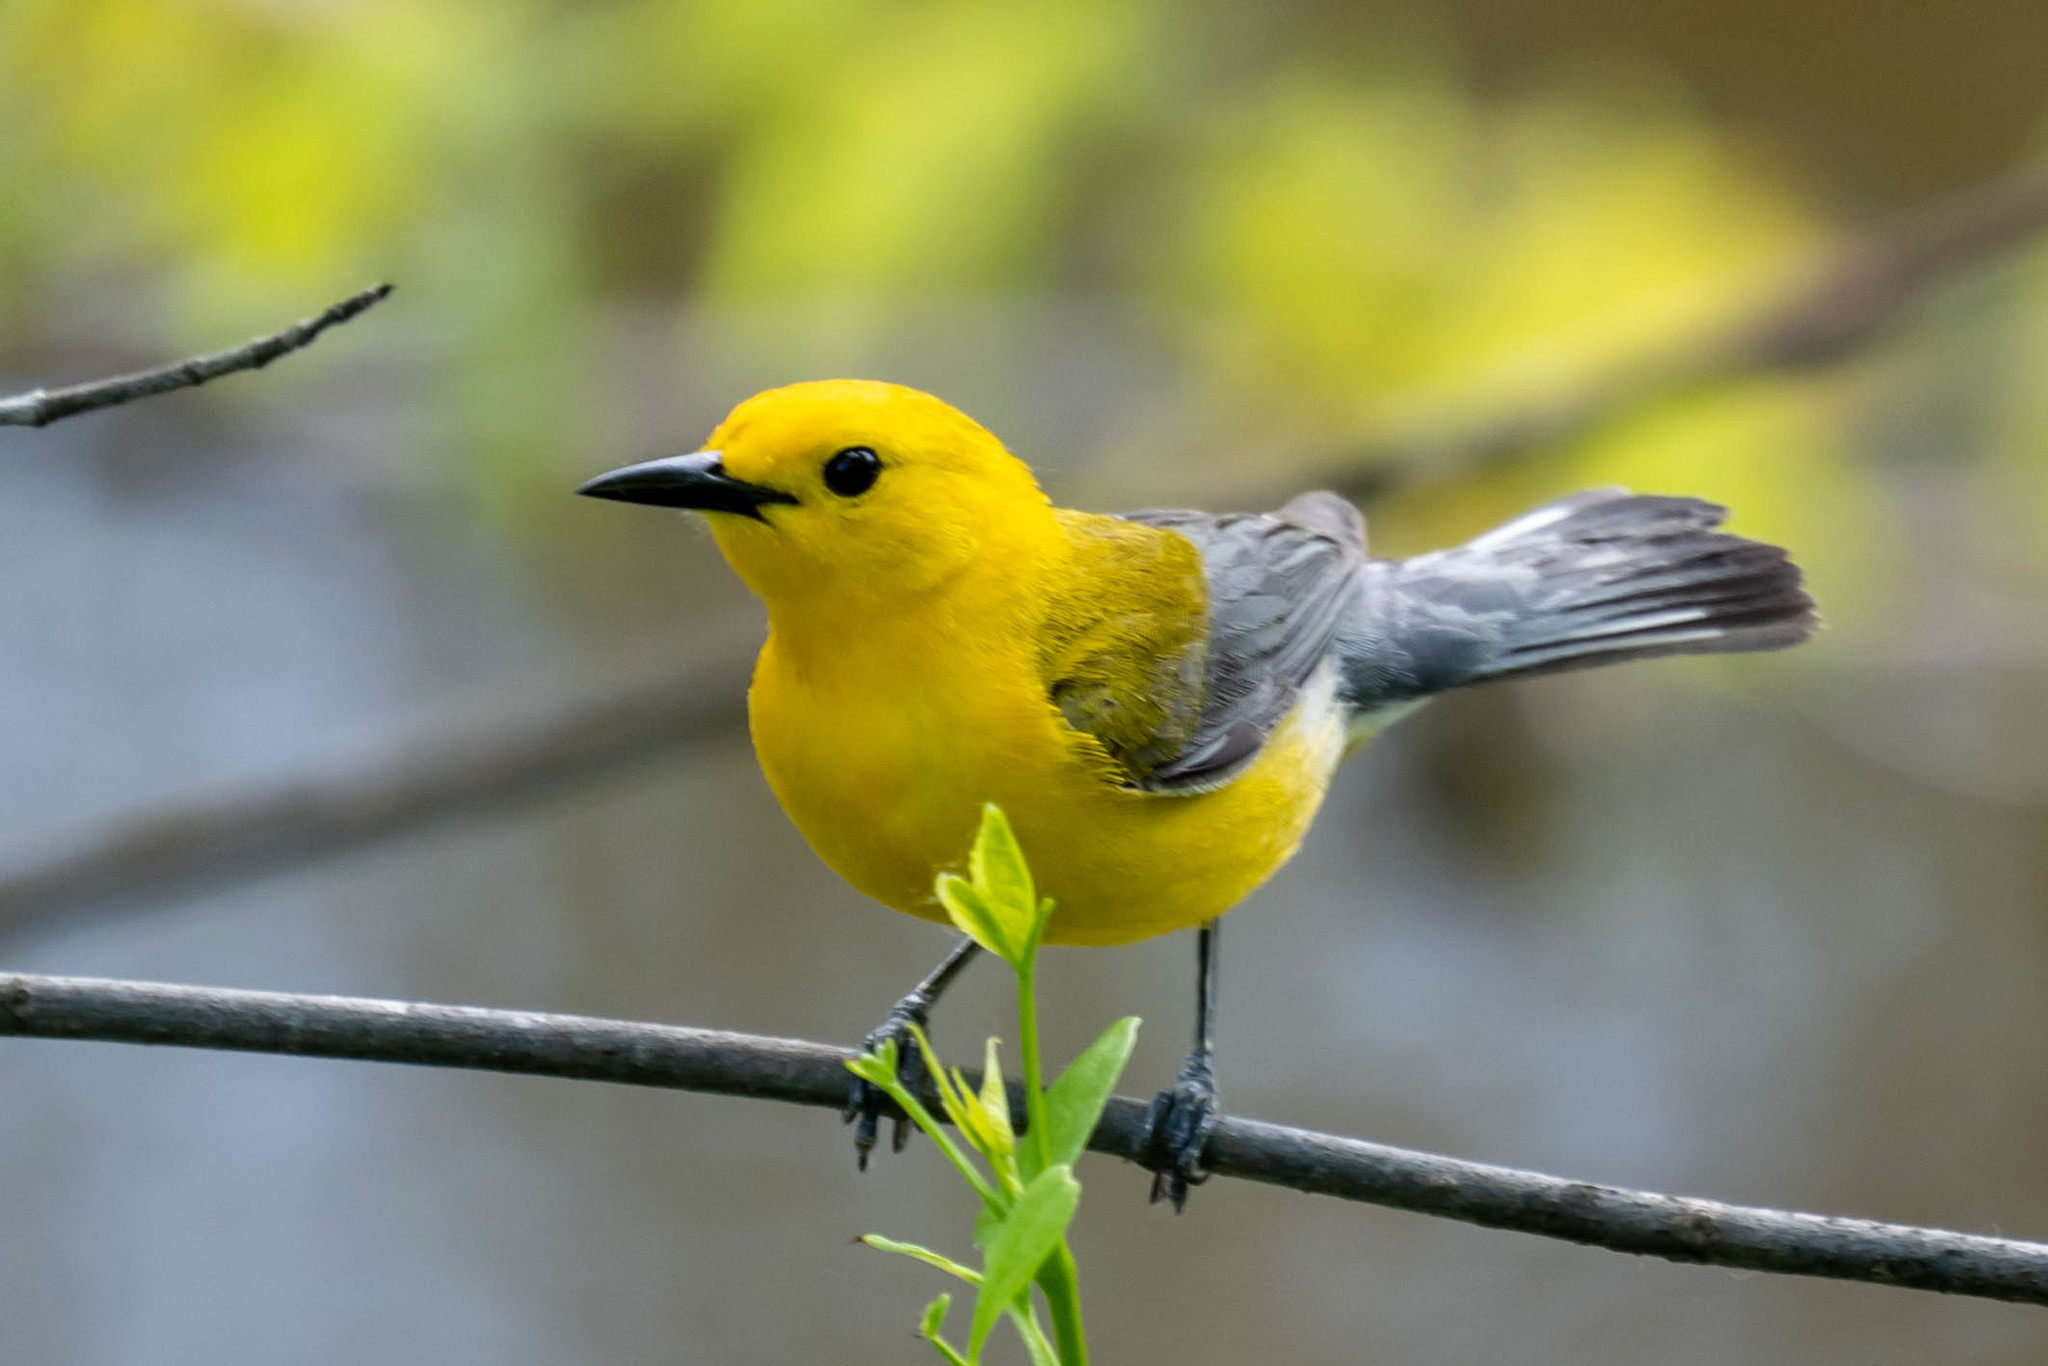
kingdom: Animalia
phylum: Chordata
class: Aves
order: Passeriformes
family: Parulidae
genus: Protonotaria
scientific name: Protonotaria citrea
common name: Prothonotary warbler
